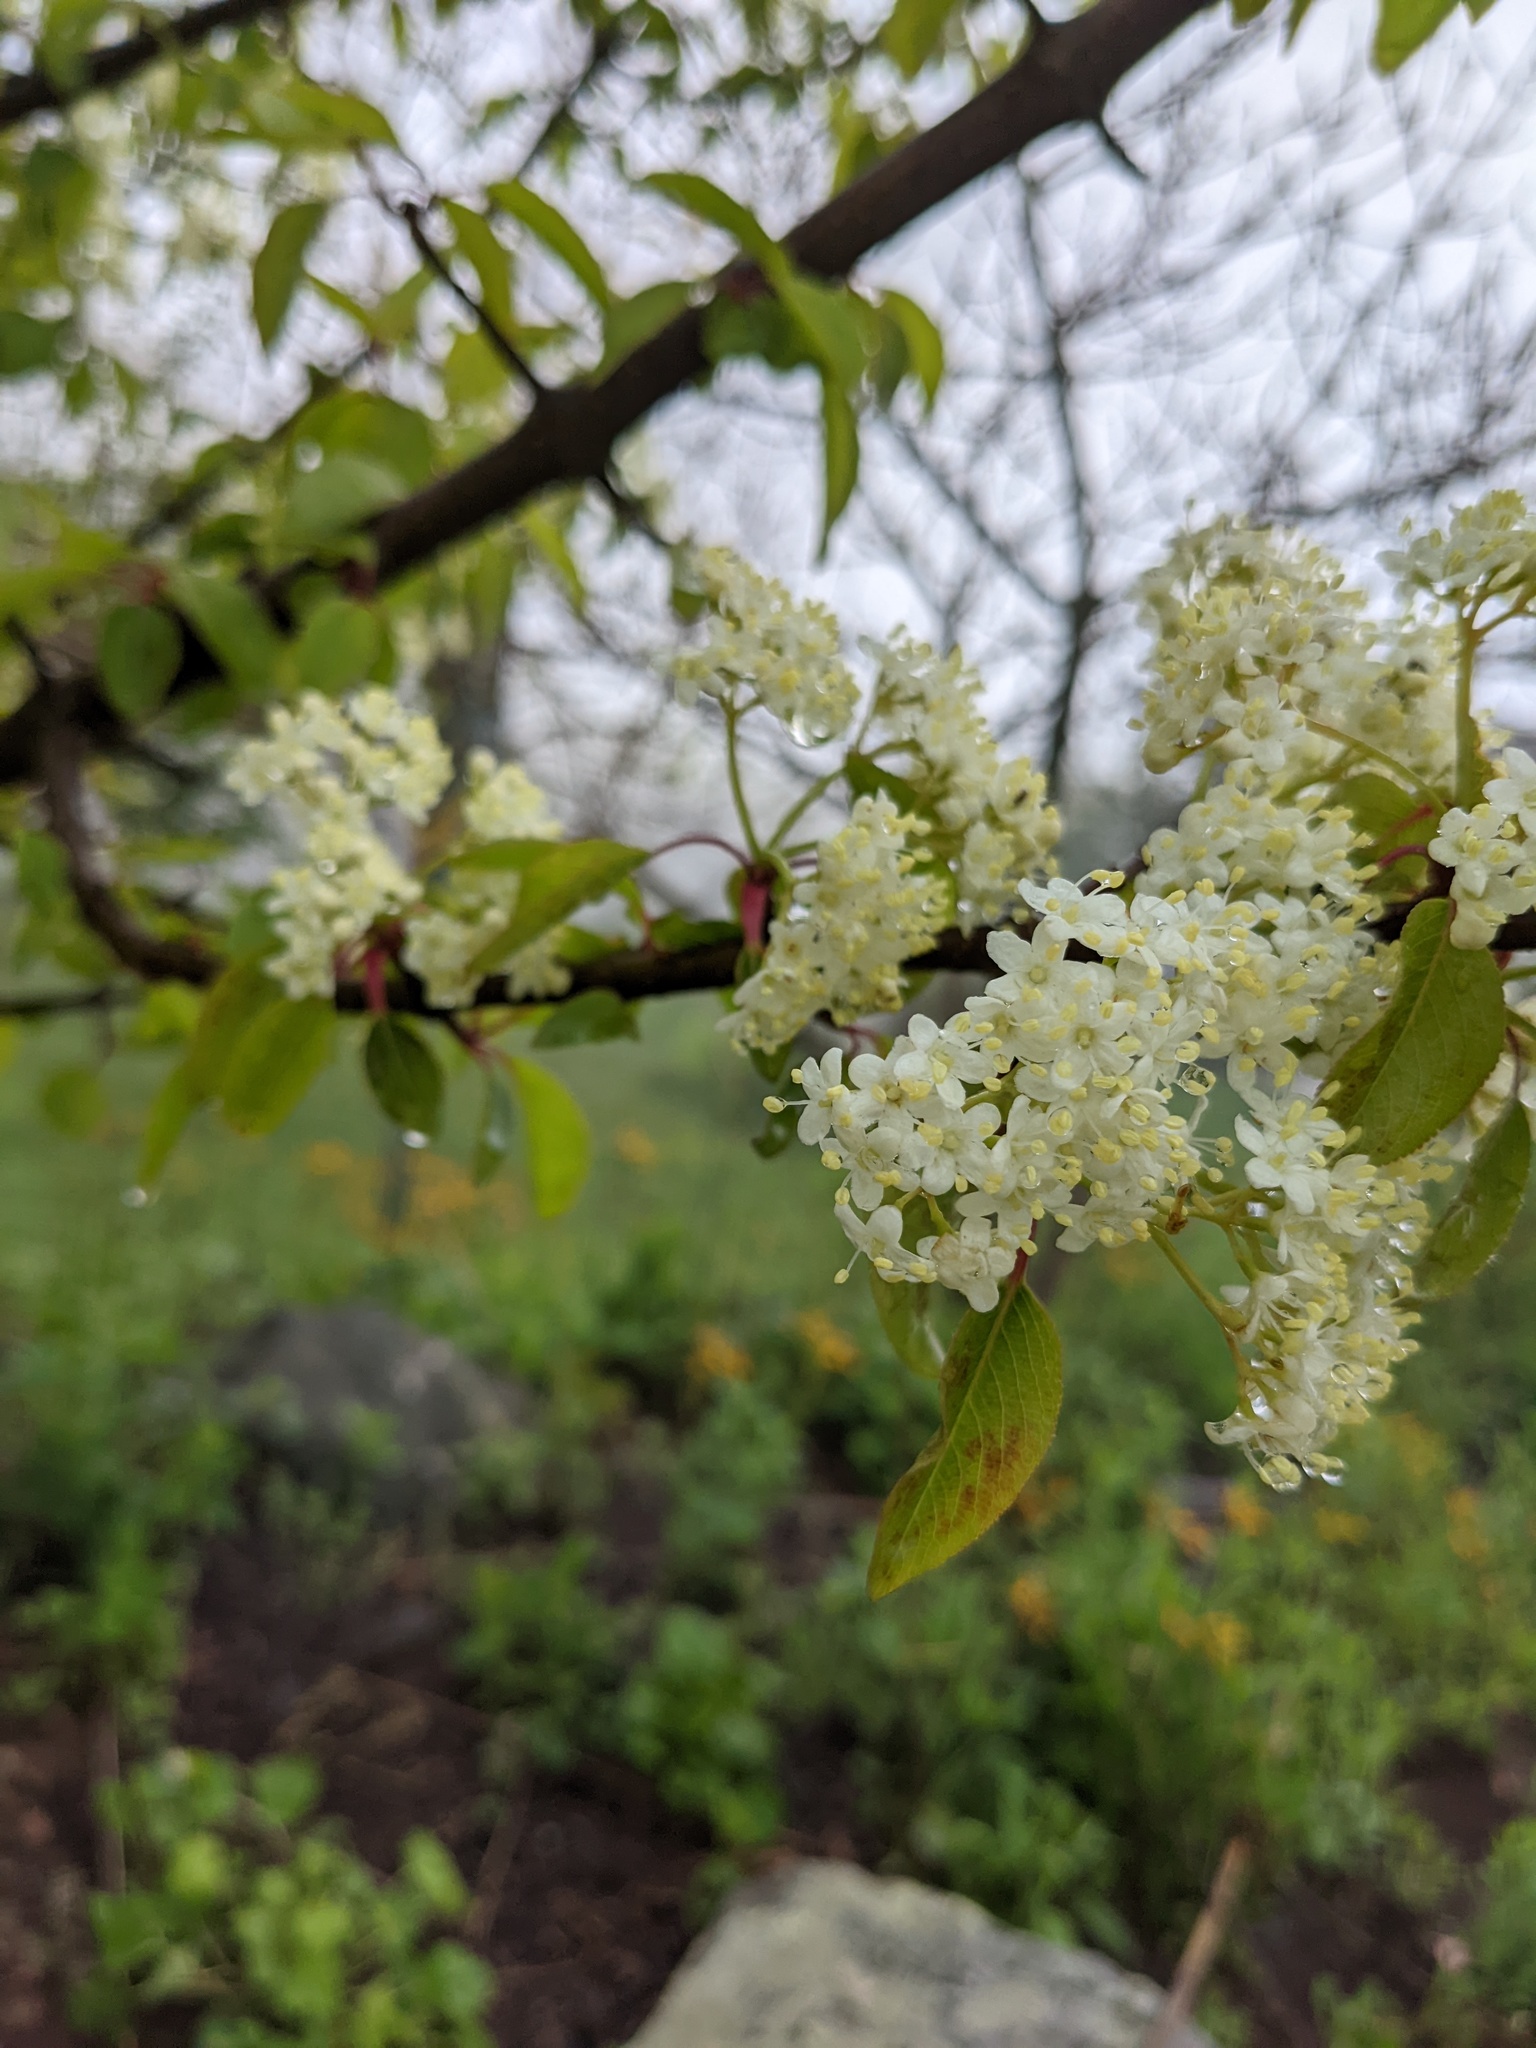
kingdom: Plantae
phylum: Tracheophyta
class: Magnoliopsida
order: Dipsacales
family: Viburnaceae
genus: Viburnum
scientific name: Viburnum prunifolium
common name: Black haw
